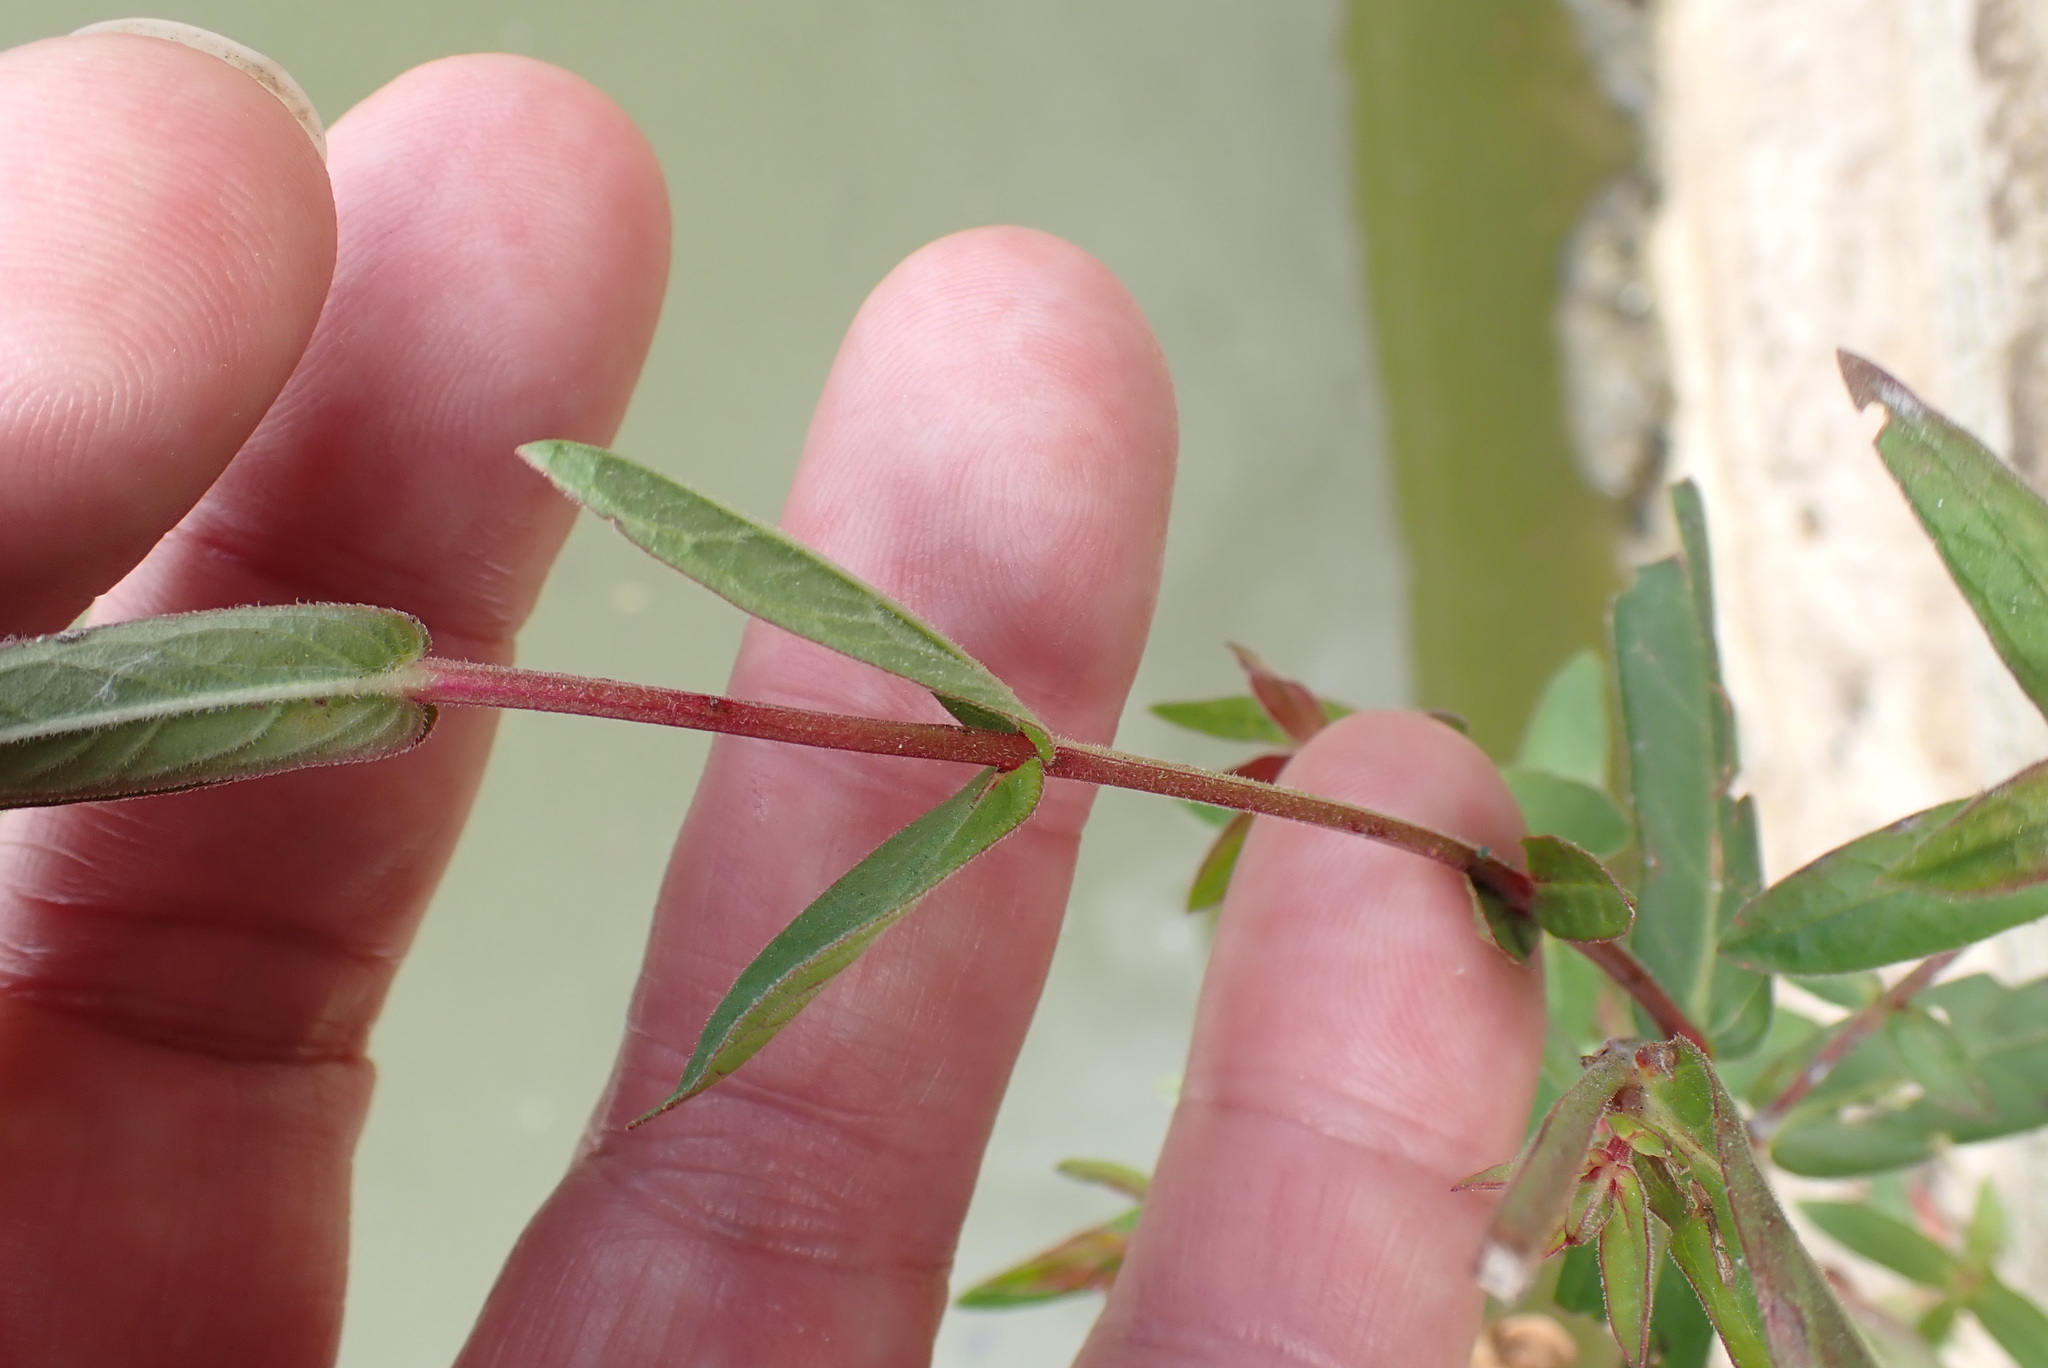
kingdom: Plantae
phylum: Tracheophyta
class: Magnoliopsida
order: Myrtales
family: Lythraceae
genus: Lythrum
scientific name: Lythrum salicaria
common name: Purple loosestrife
